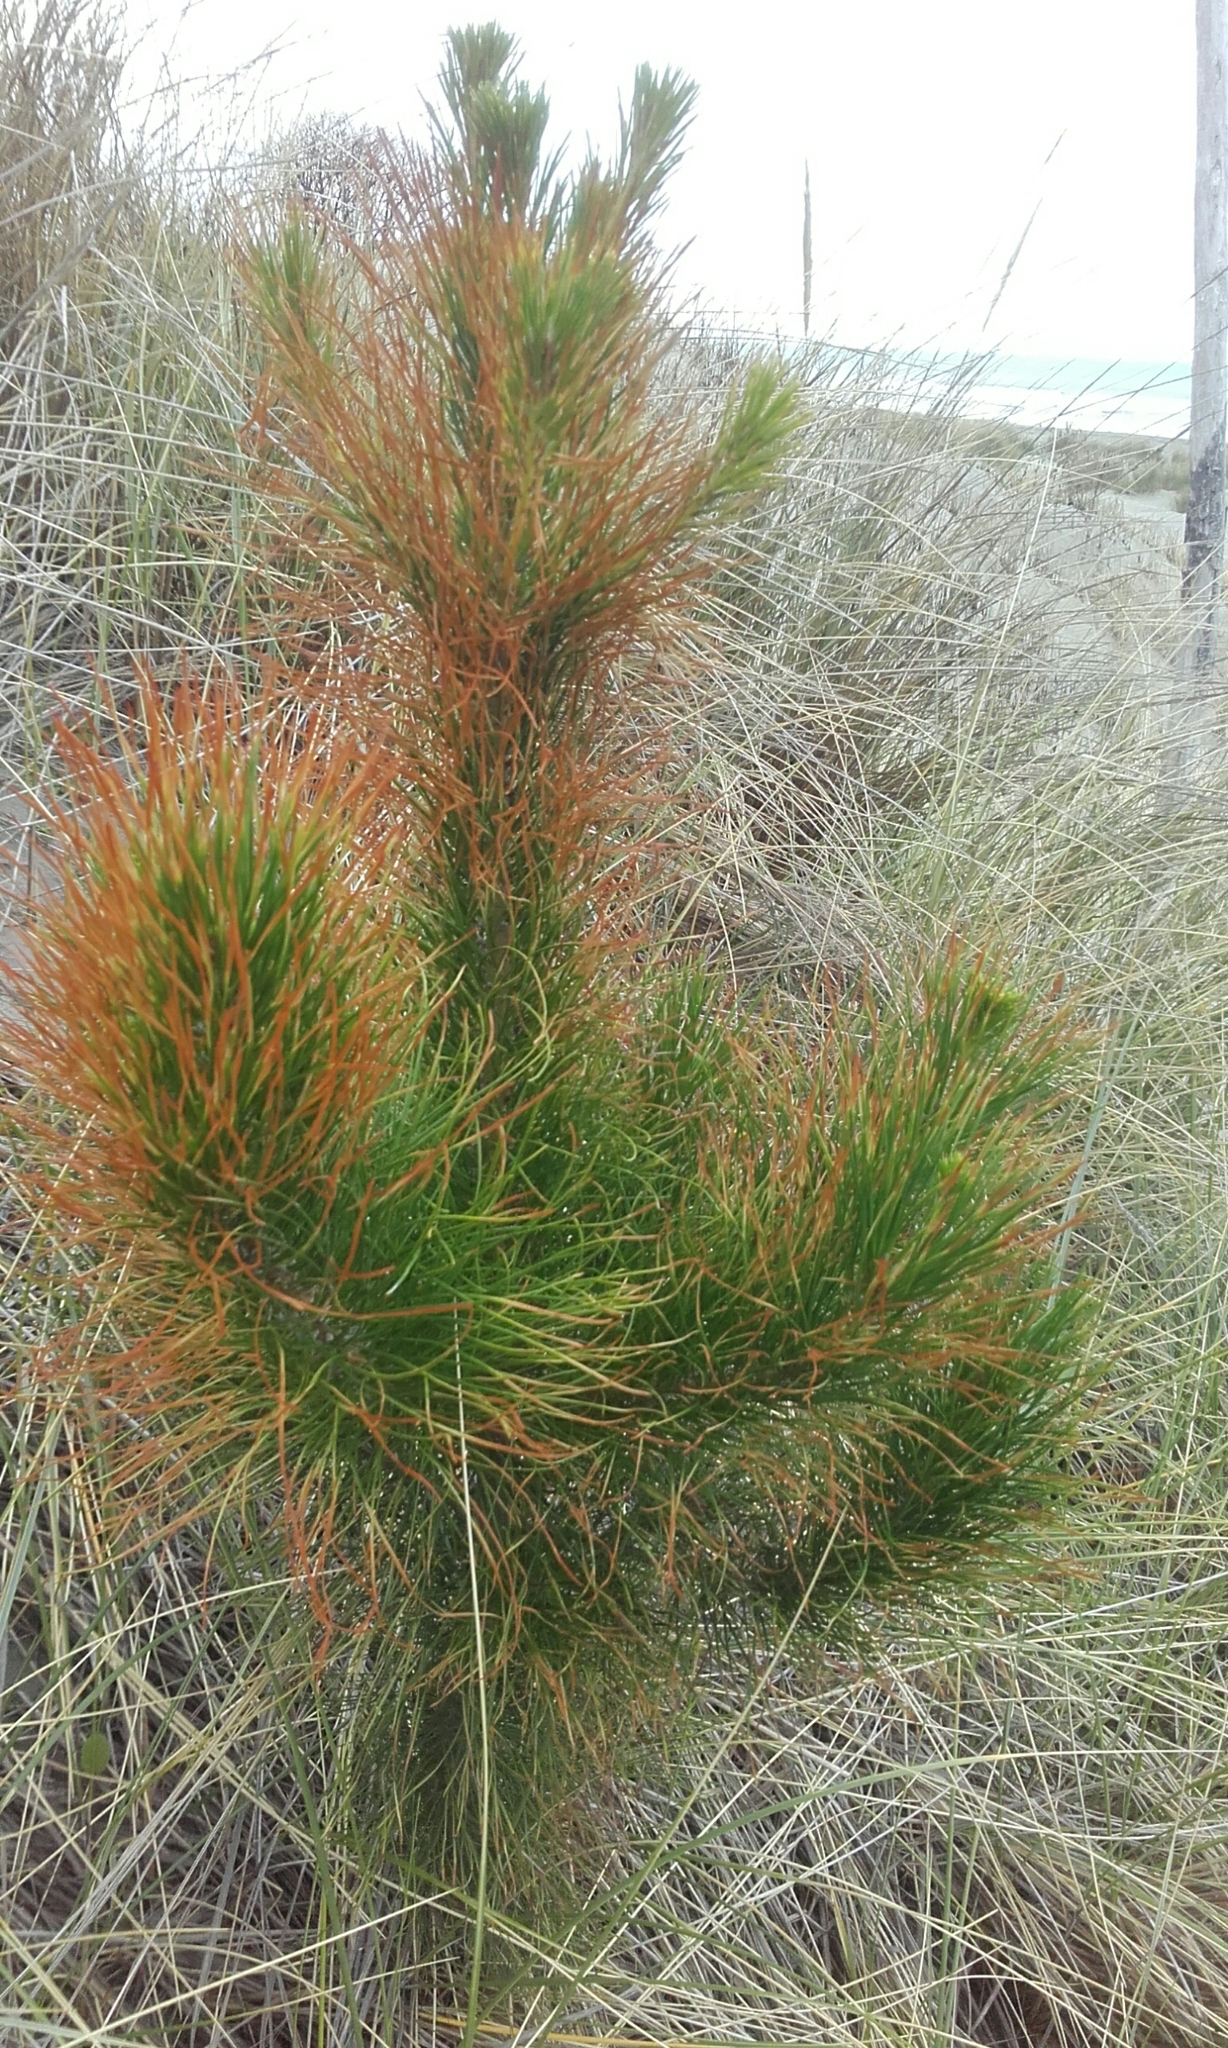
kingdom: Plantae
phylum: Tracheophyta
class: Pinopsida
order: Pinales
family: Pinaceae
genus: Pinus
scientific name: Pinus radiata
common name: Monterey pine
